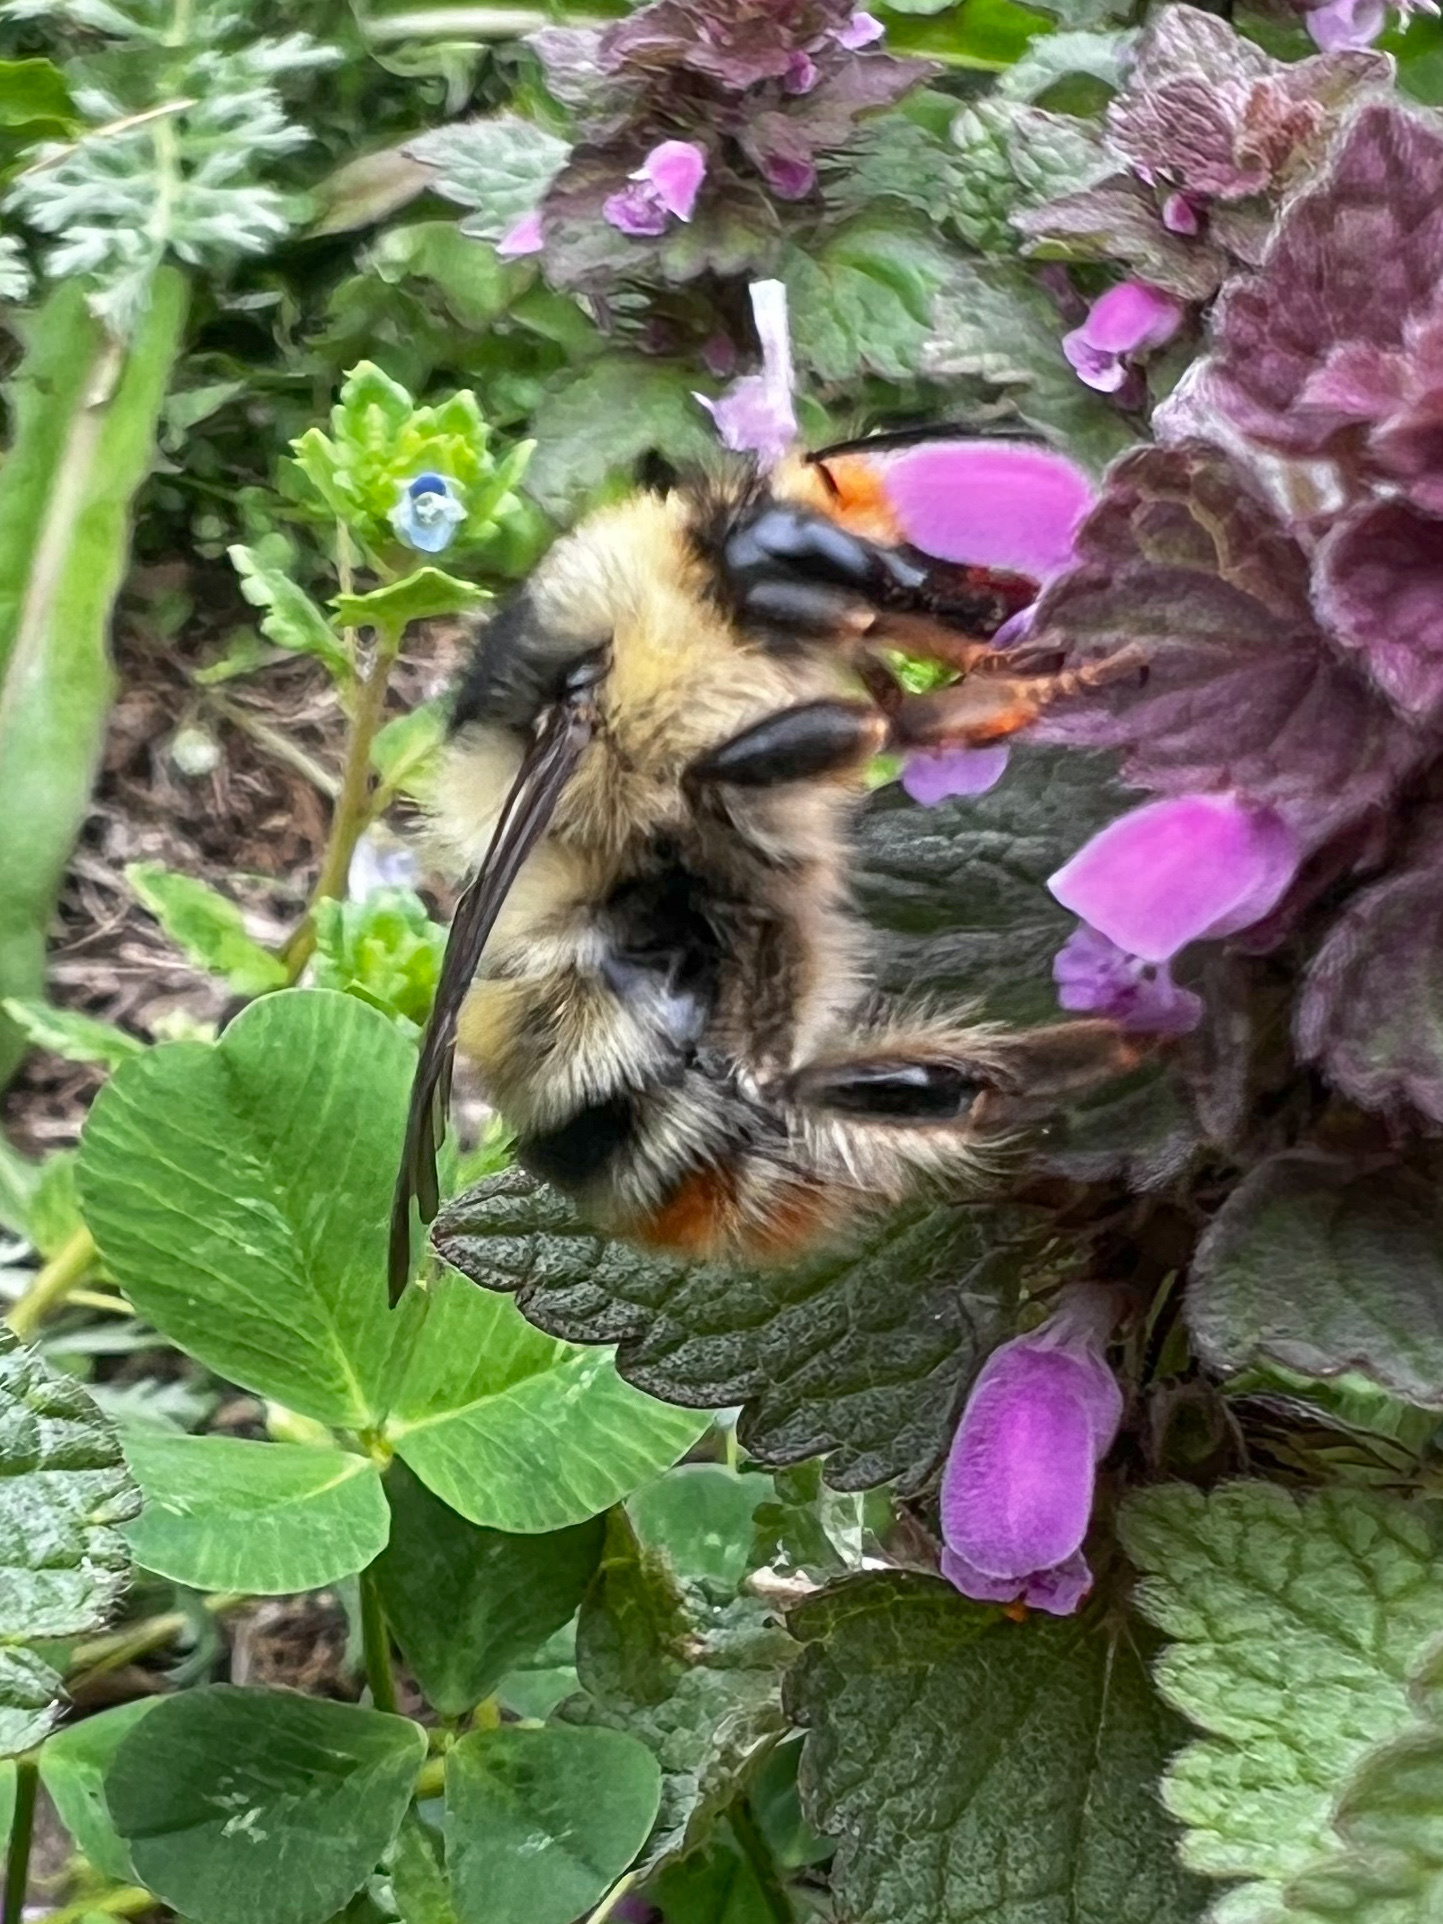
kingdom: Animalia
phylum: Arthropoda
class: Insecta
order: Hymenoptera
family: Apidae
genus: Bombus
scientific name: Bombus sylvarum
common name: Shrill carder bee
